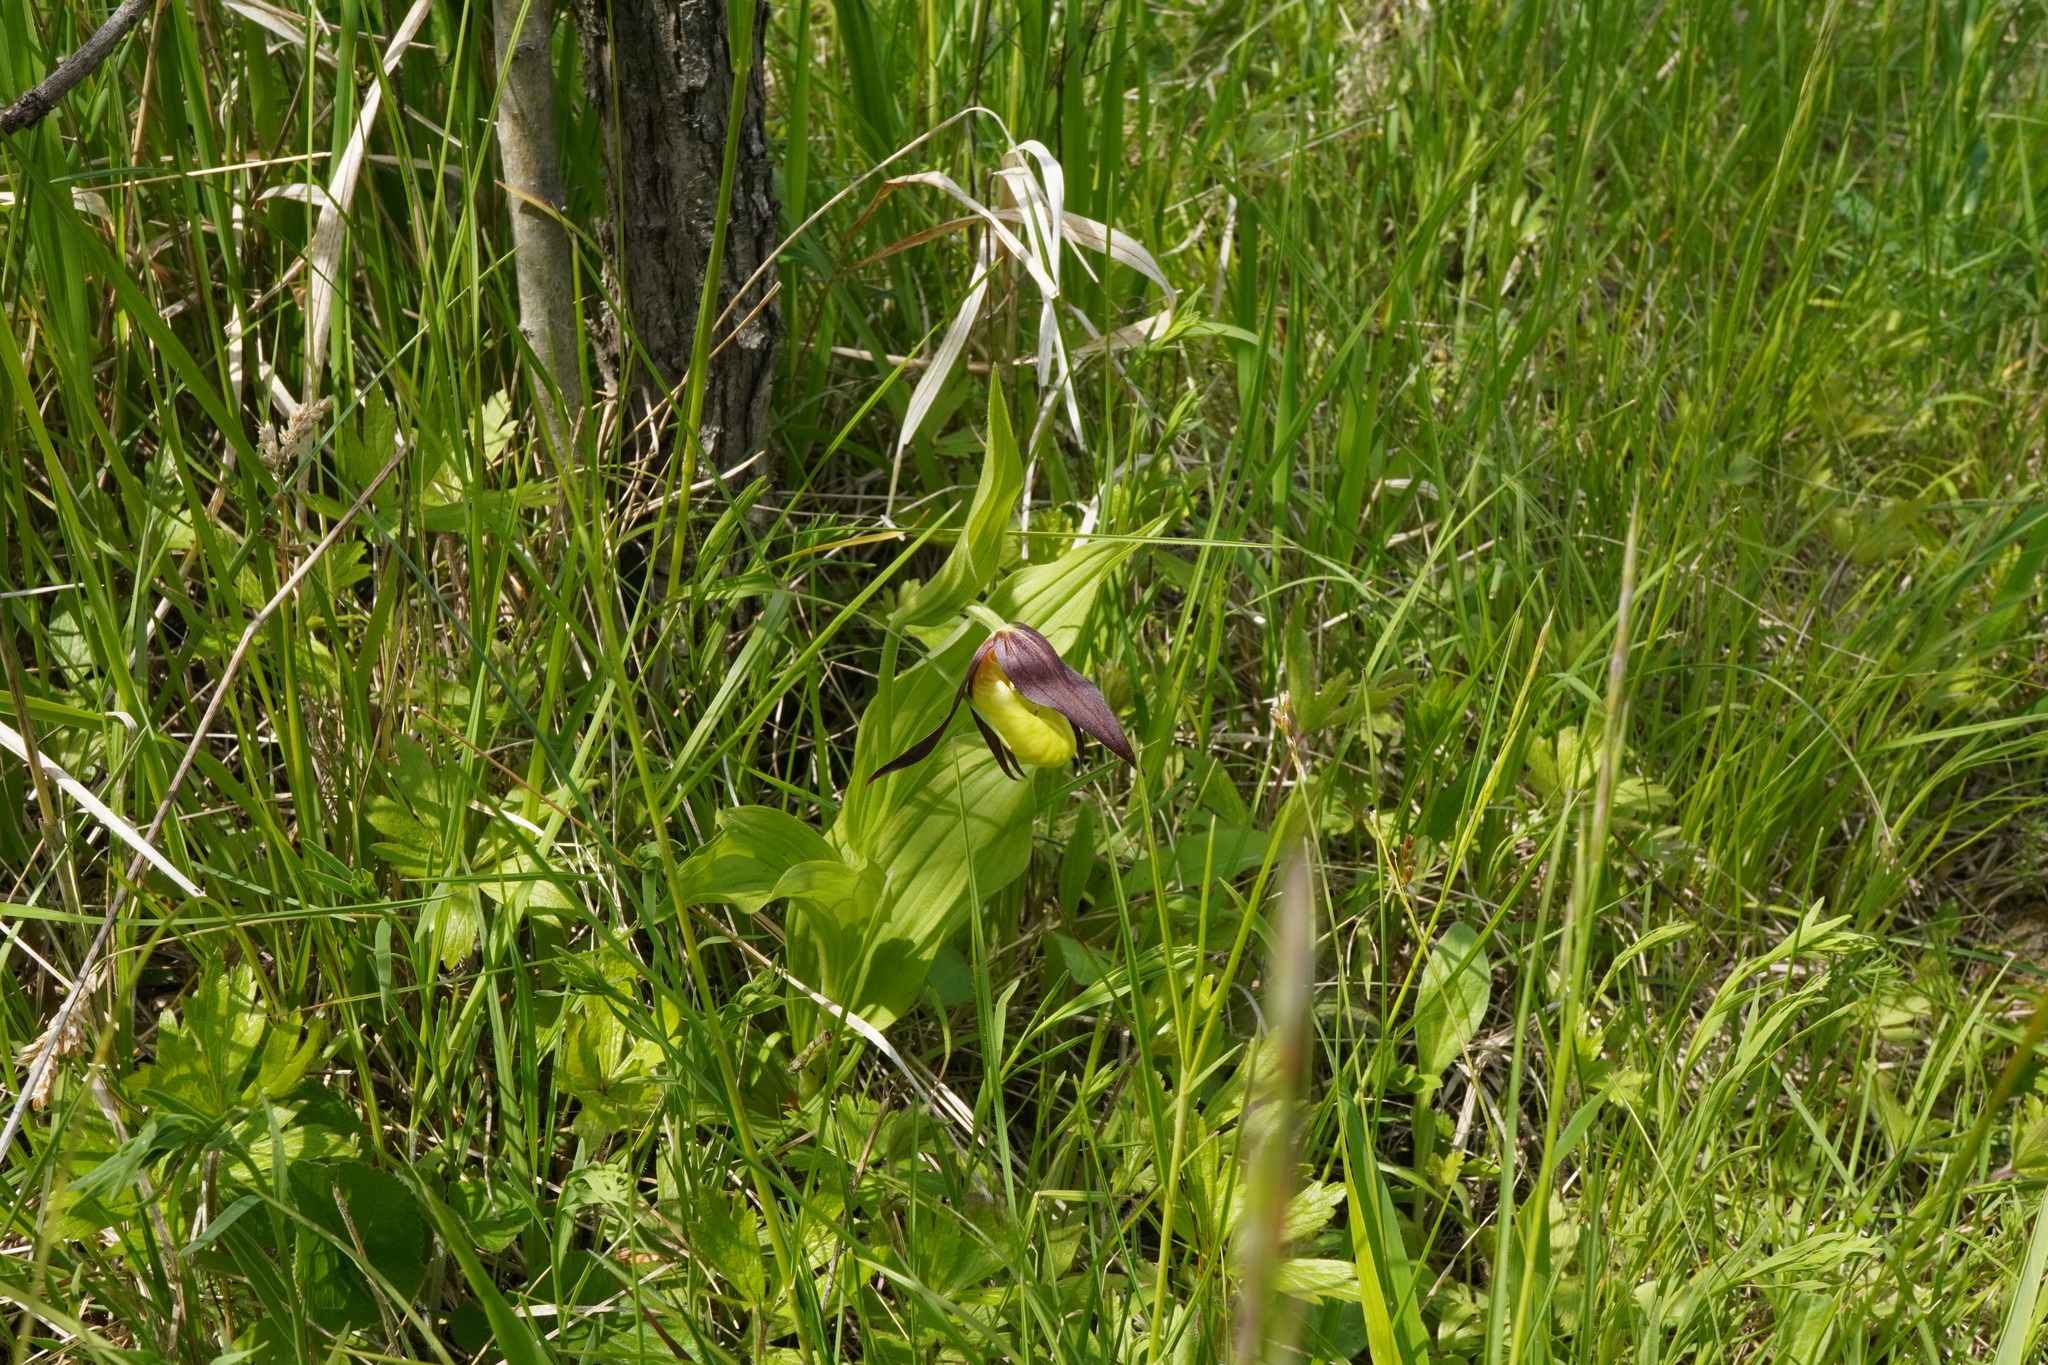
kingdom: Plantae
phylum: Tracheophyta
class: Liliopsida
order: Asparagales
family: Orchidaceae
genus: Cypripedium
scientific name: Cypripedium calceolus
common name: Lady's-slipper
